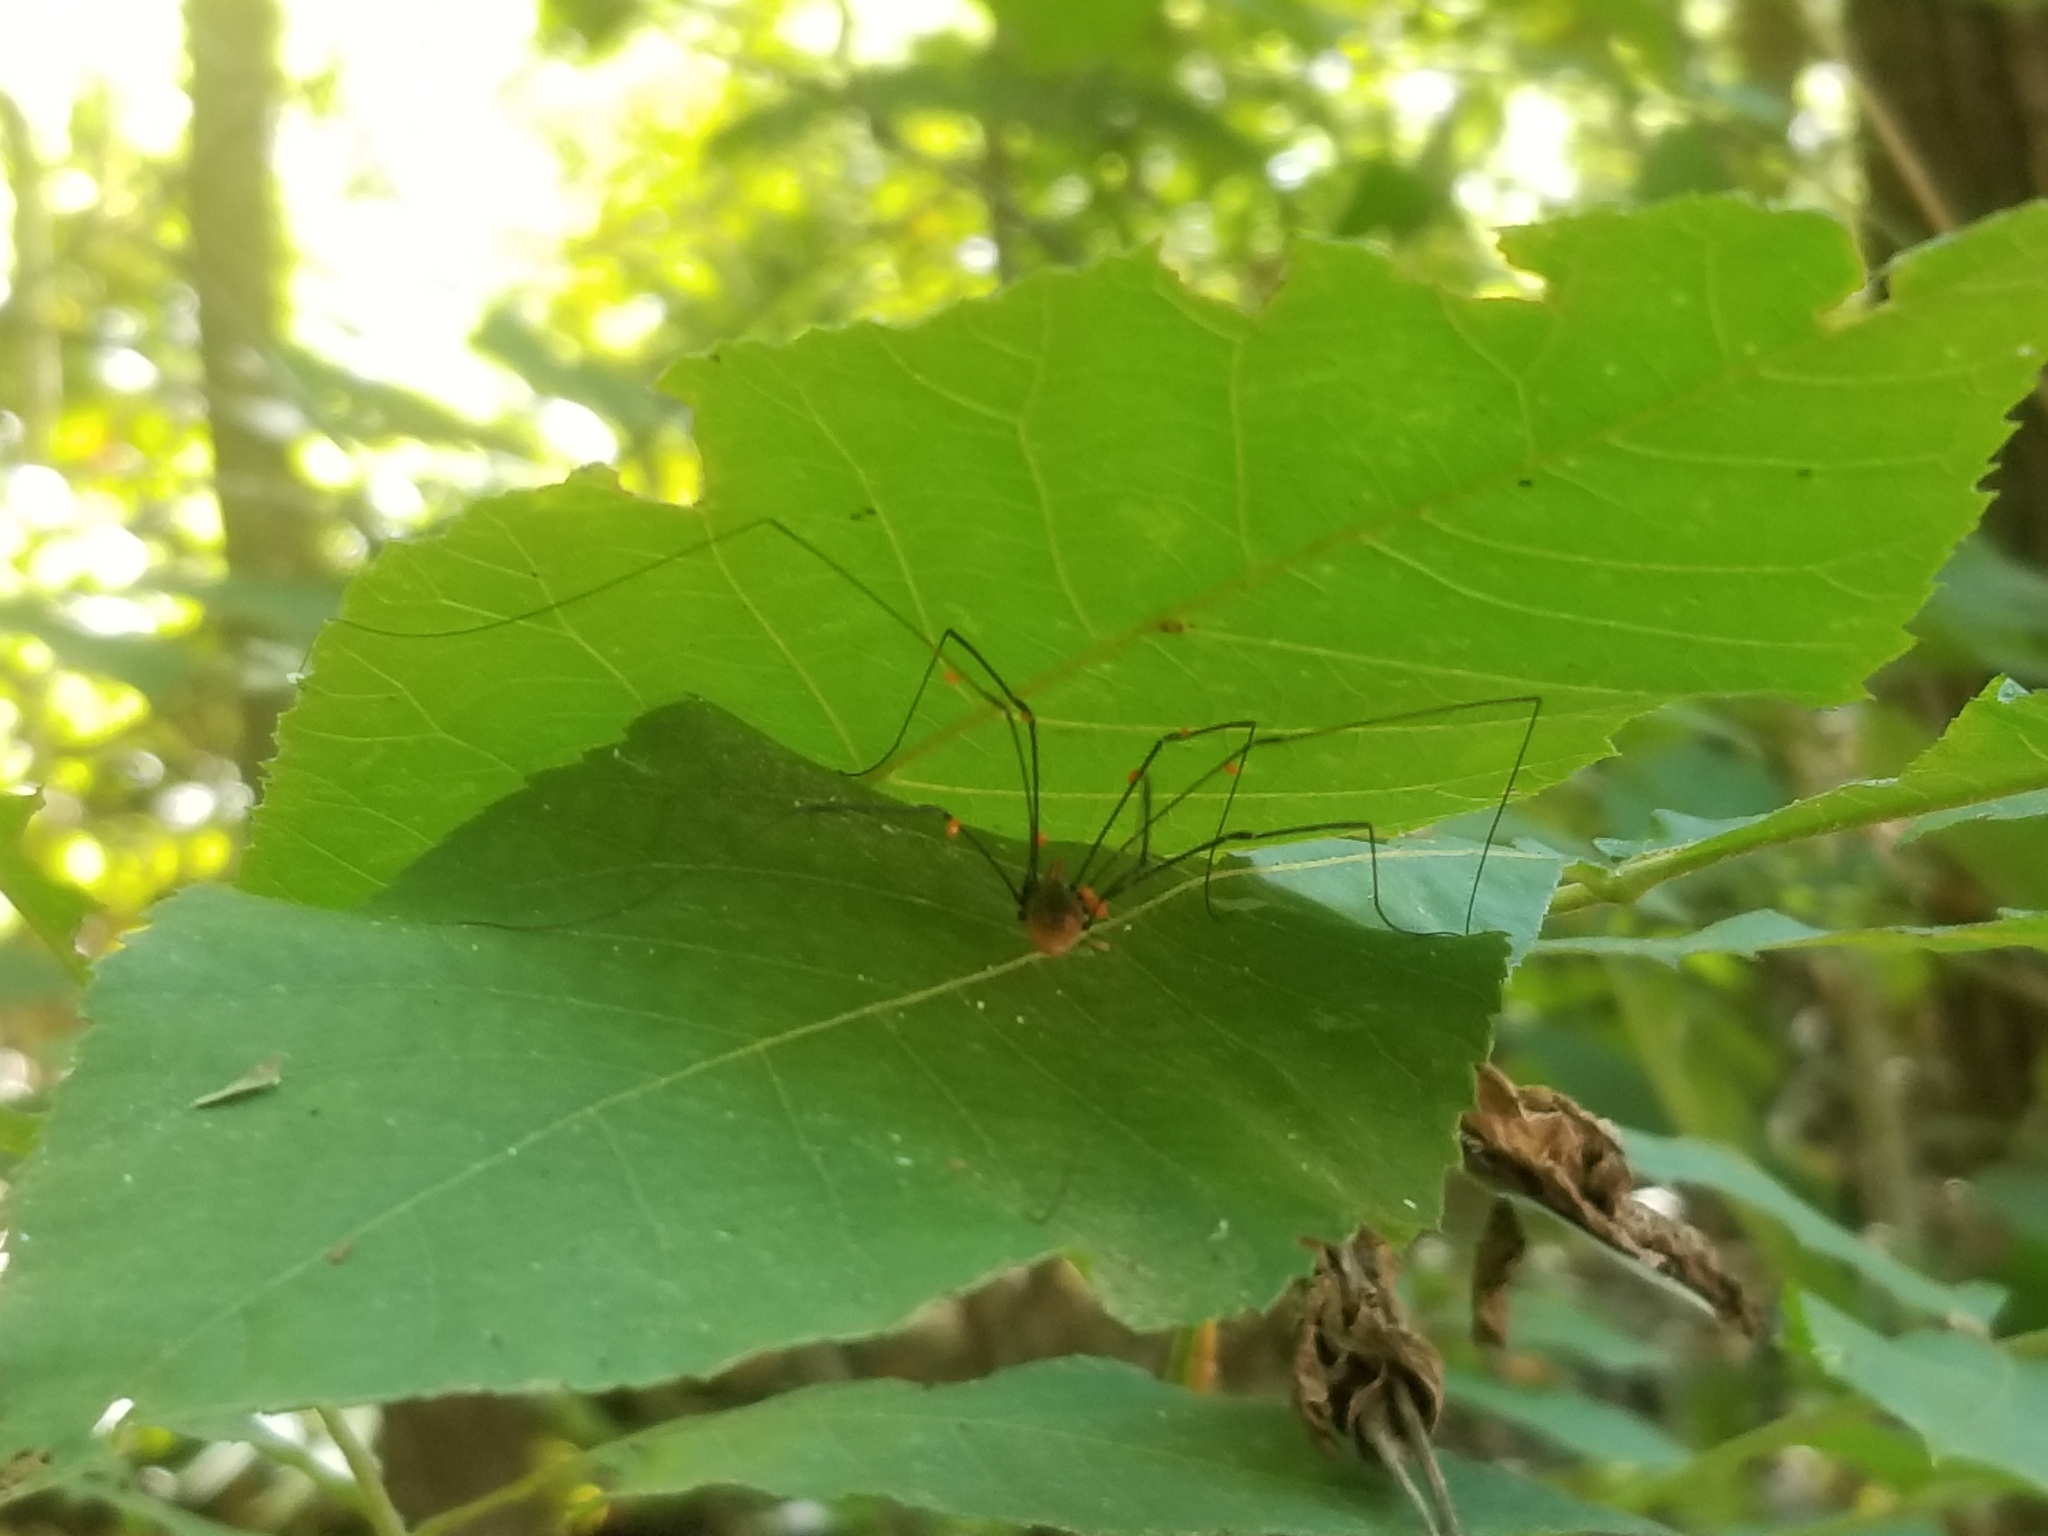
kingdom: Animalia
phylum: Arthropoda
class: Arachnida
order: Opiliones
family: Sclerosomatidae
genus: Leiobunum
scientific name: Leiobunum vittatum
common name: Eastern harvestman
